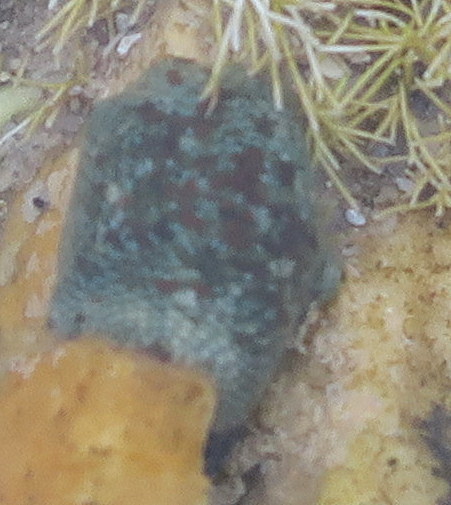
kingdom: Animalia
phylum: Echinodermata
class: Asteroidea
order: Valvatida
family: Asterinidae
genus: Parvulastra
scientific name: Parvulastra exigua
